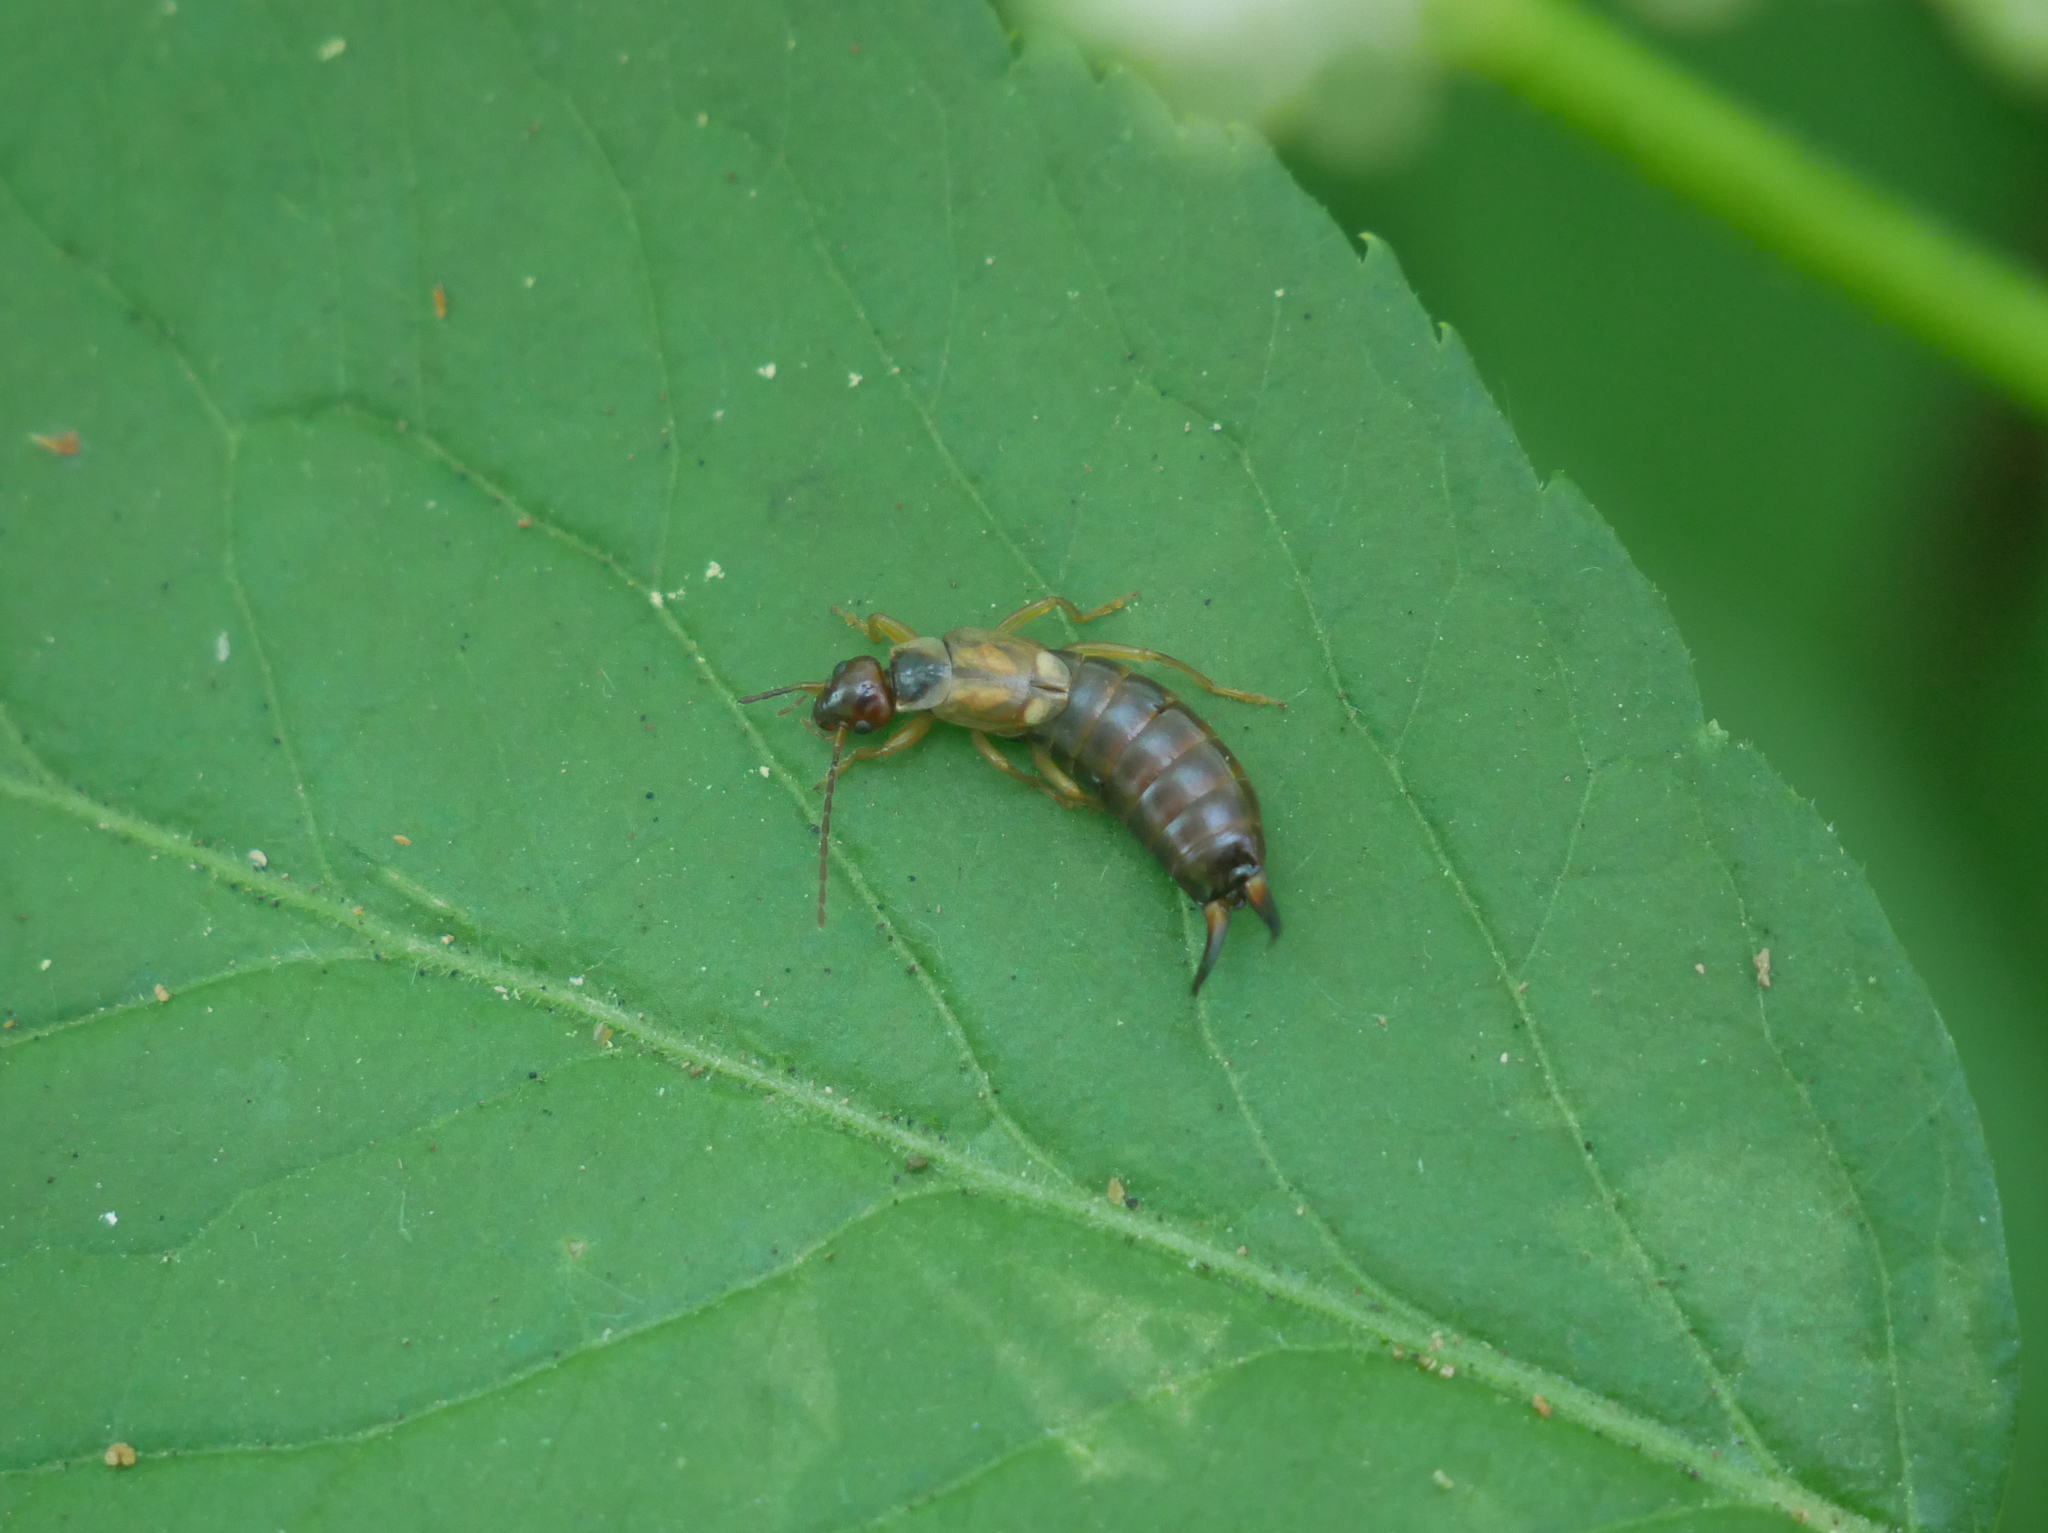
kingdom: Animalia
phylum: Arthropoda
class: Insecta
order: Dermaptera
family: Forficulidae
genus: Forficula
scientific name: Forficula
